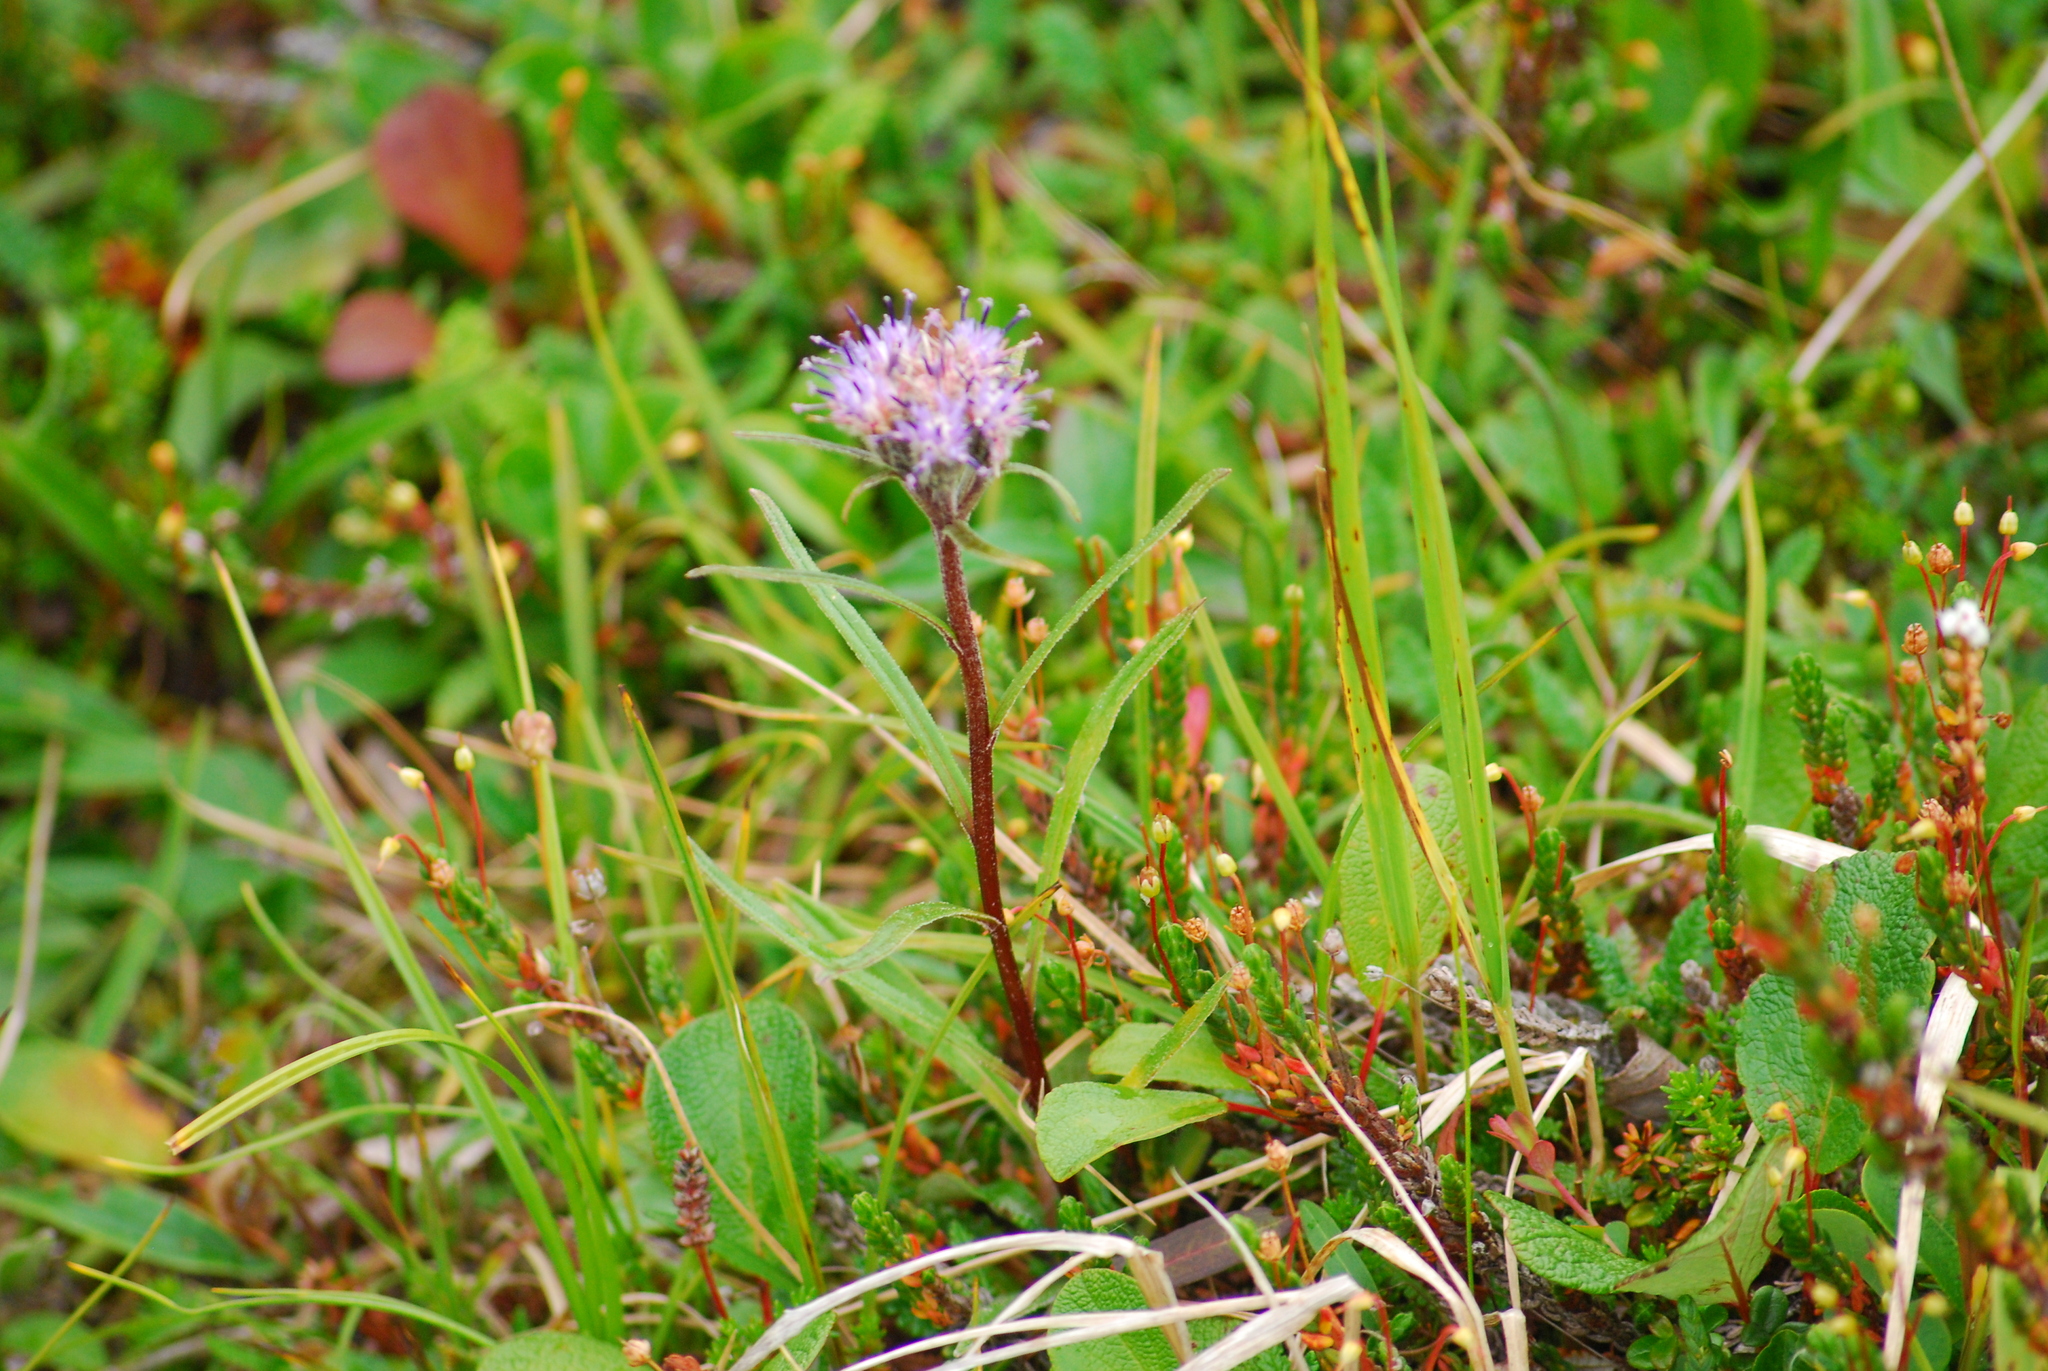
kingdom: Plantae
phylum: Tracheophyta
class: Magnoliopsida
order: Asterales
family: Asteraceae
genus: Saussurea
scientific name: Saussurea angustifolia
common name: Common saussurea
